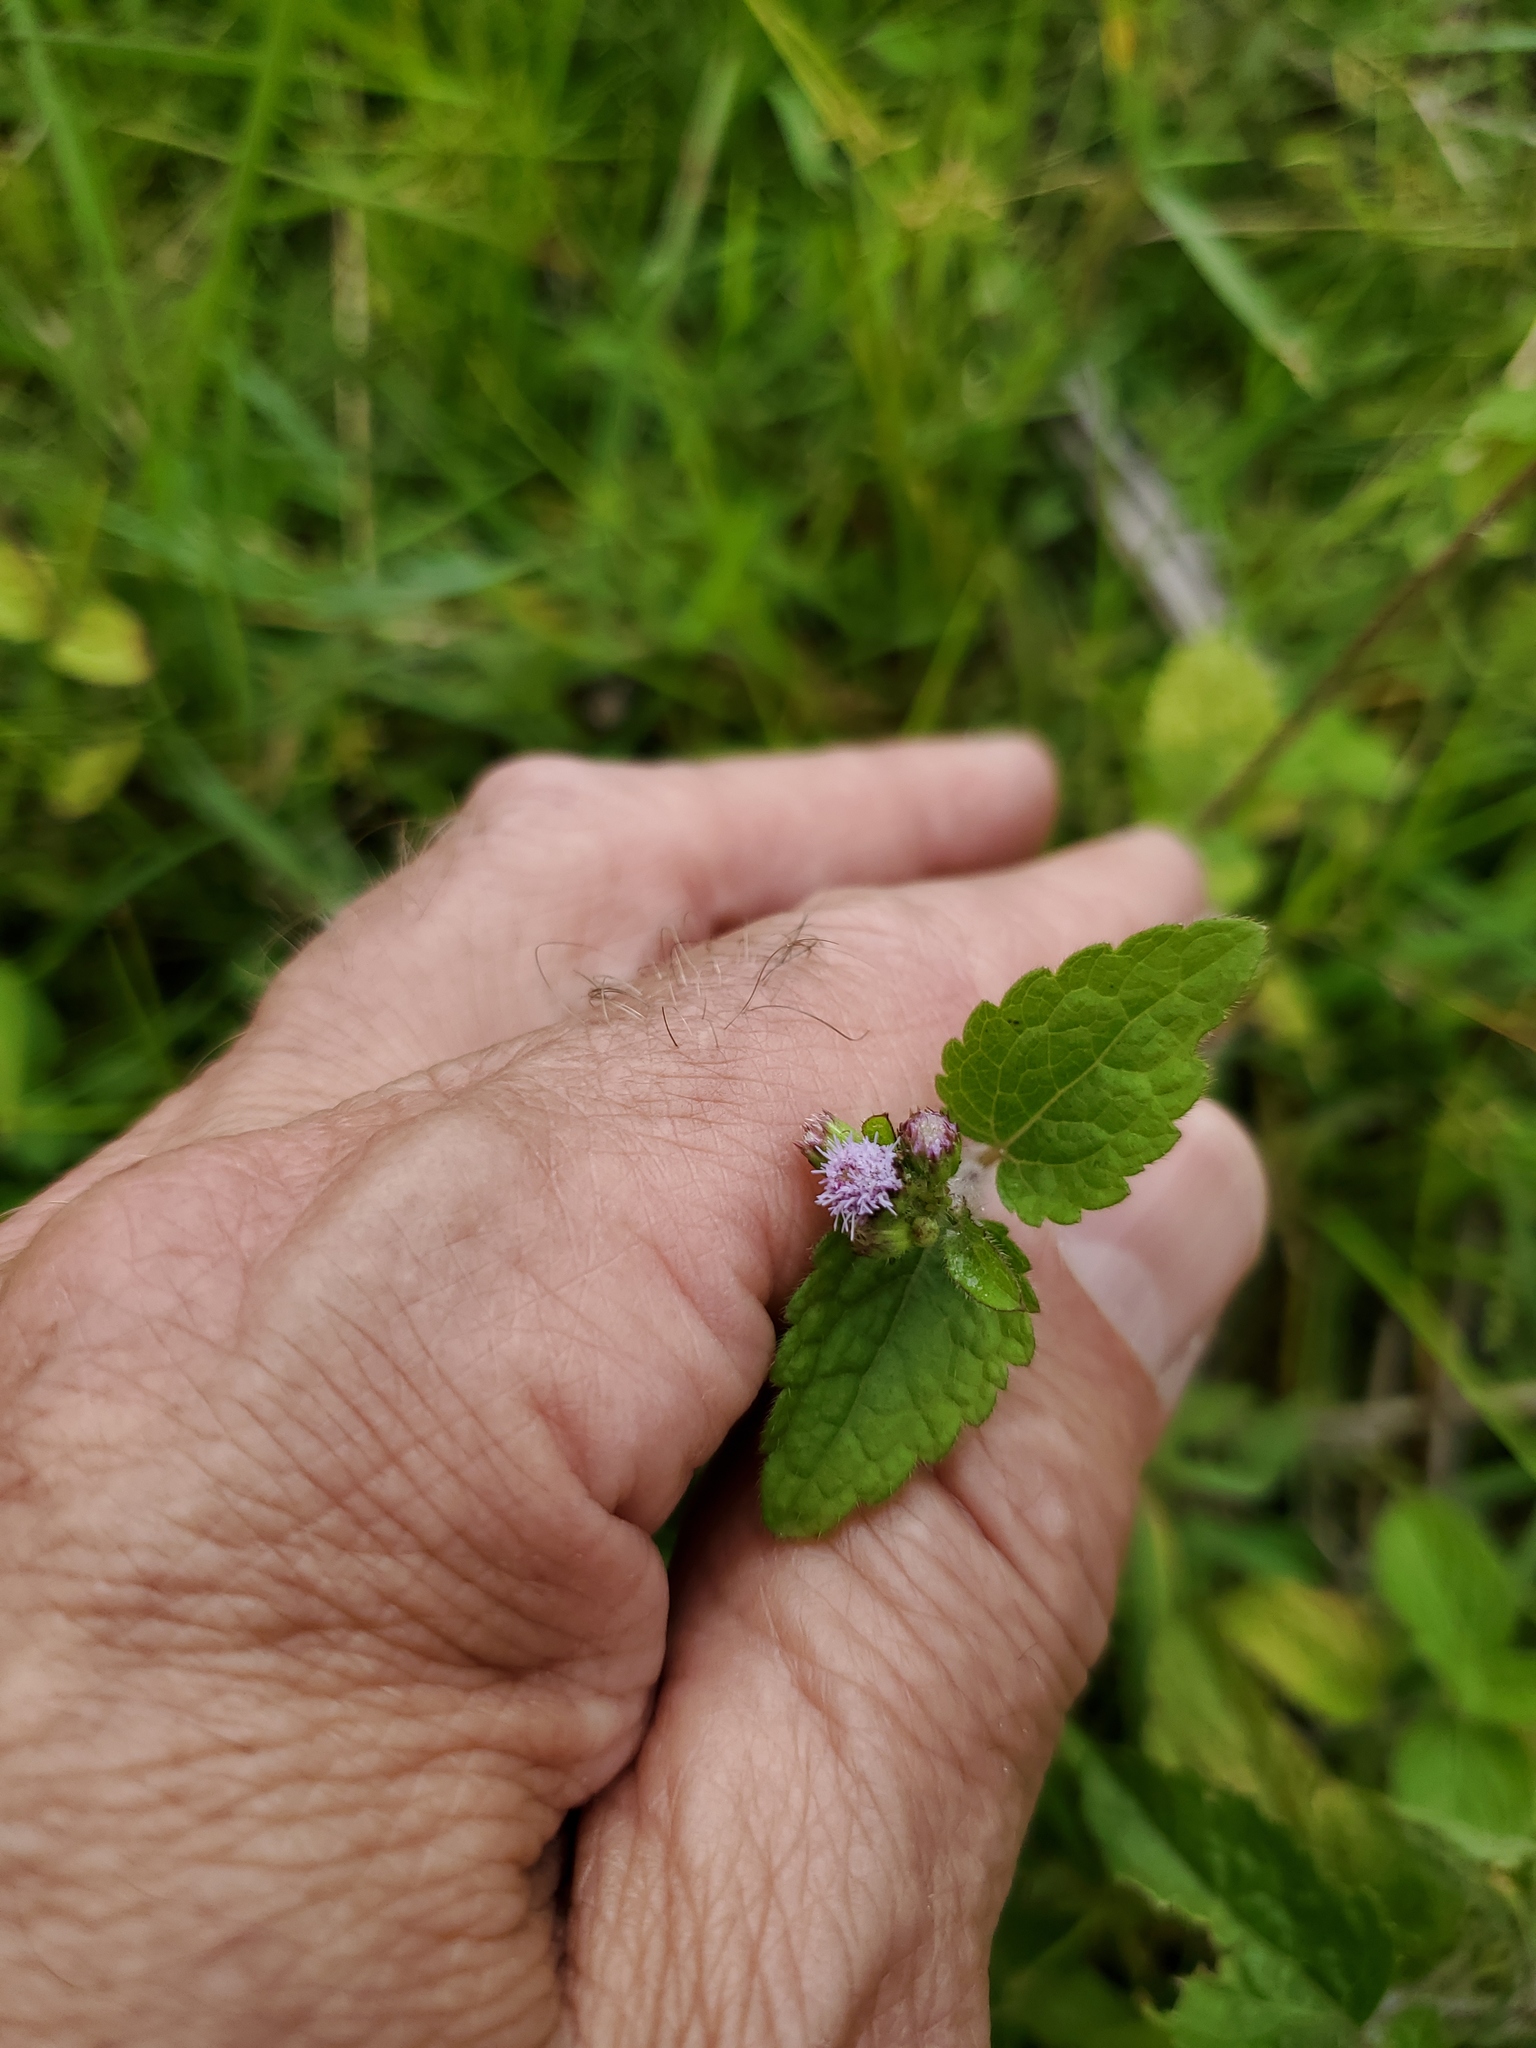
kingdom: Plantae
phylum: Tracheophyta
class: Magnoliopsida
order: Asterales
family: Asteraceae
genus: Ageratum
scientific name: Ageratum houstonianum
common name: Bluemink
